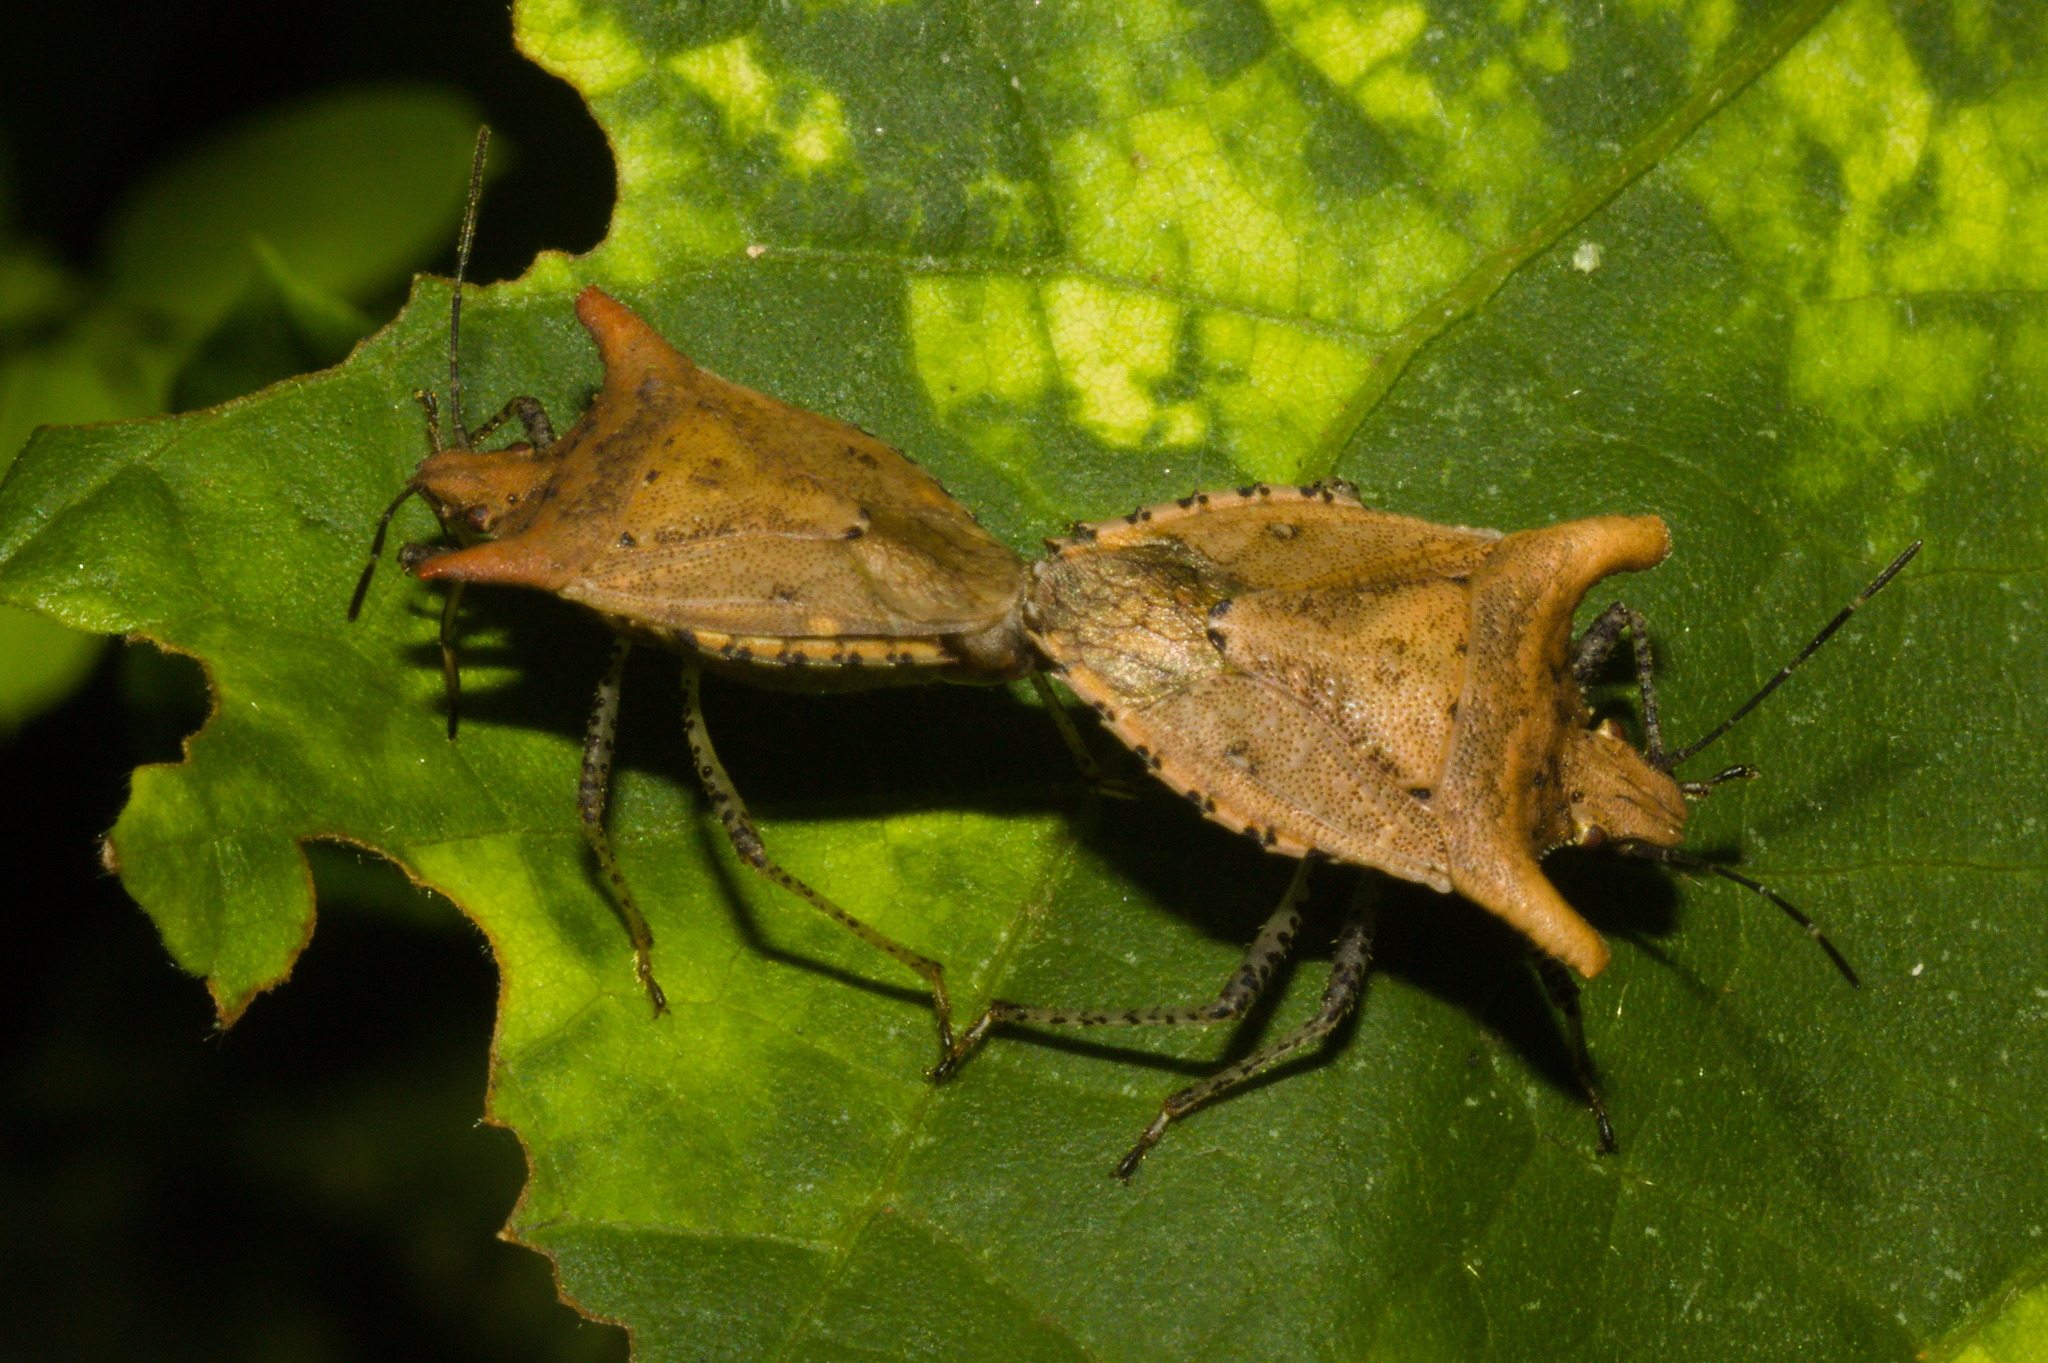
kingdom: Animalia
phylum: Arthropoda
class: Insecta
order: Hemiptera
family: Pentatomidae
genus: Euschistus
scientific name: Euschistus cornutus
